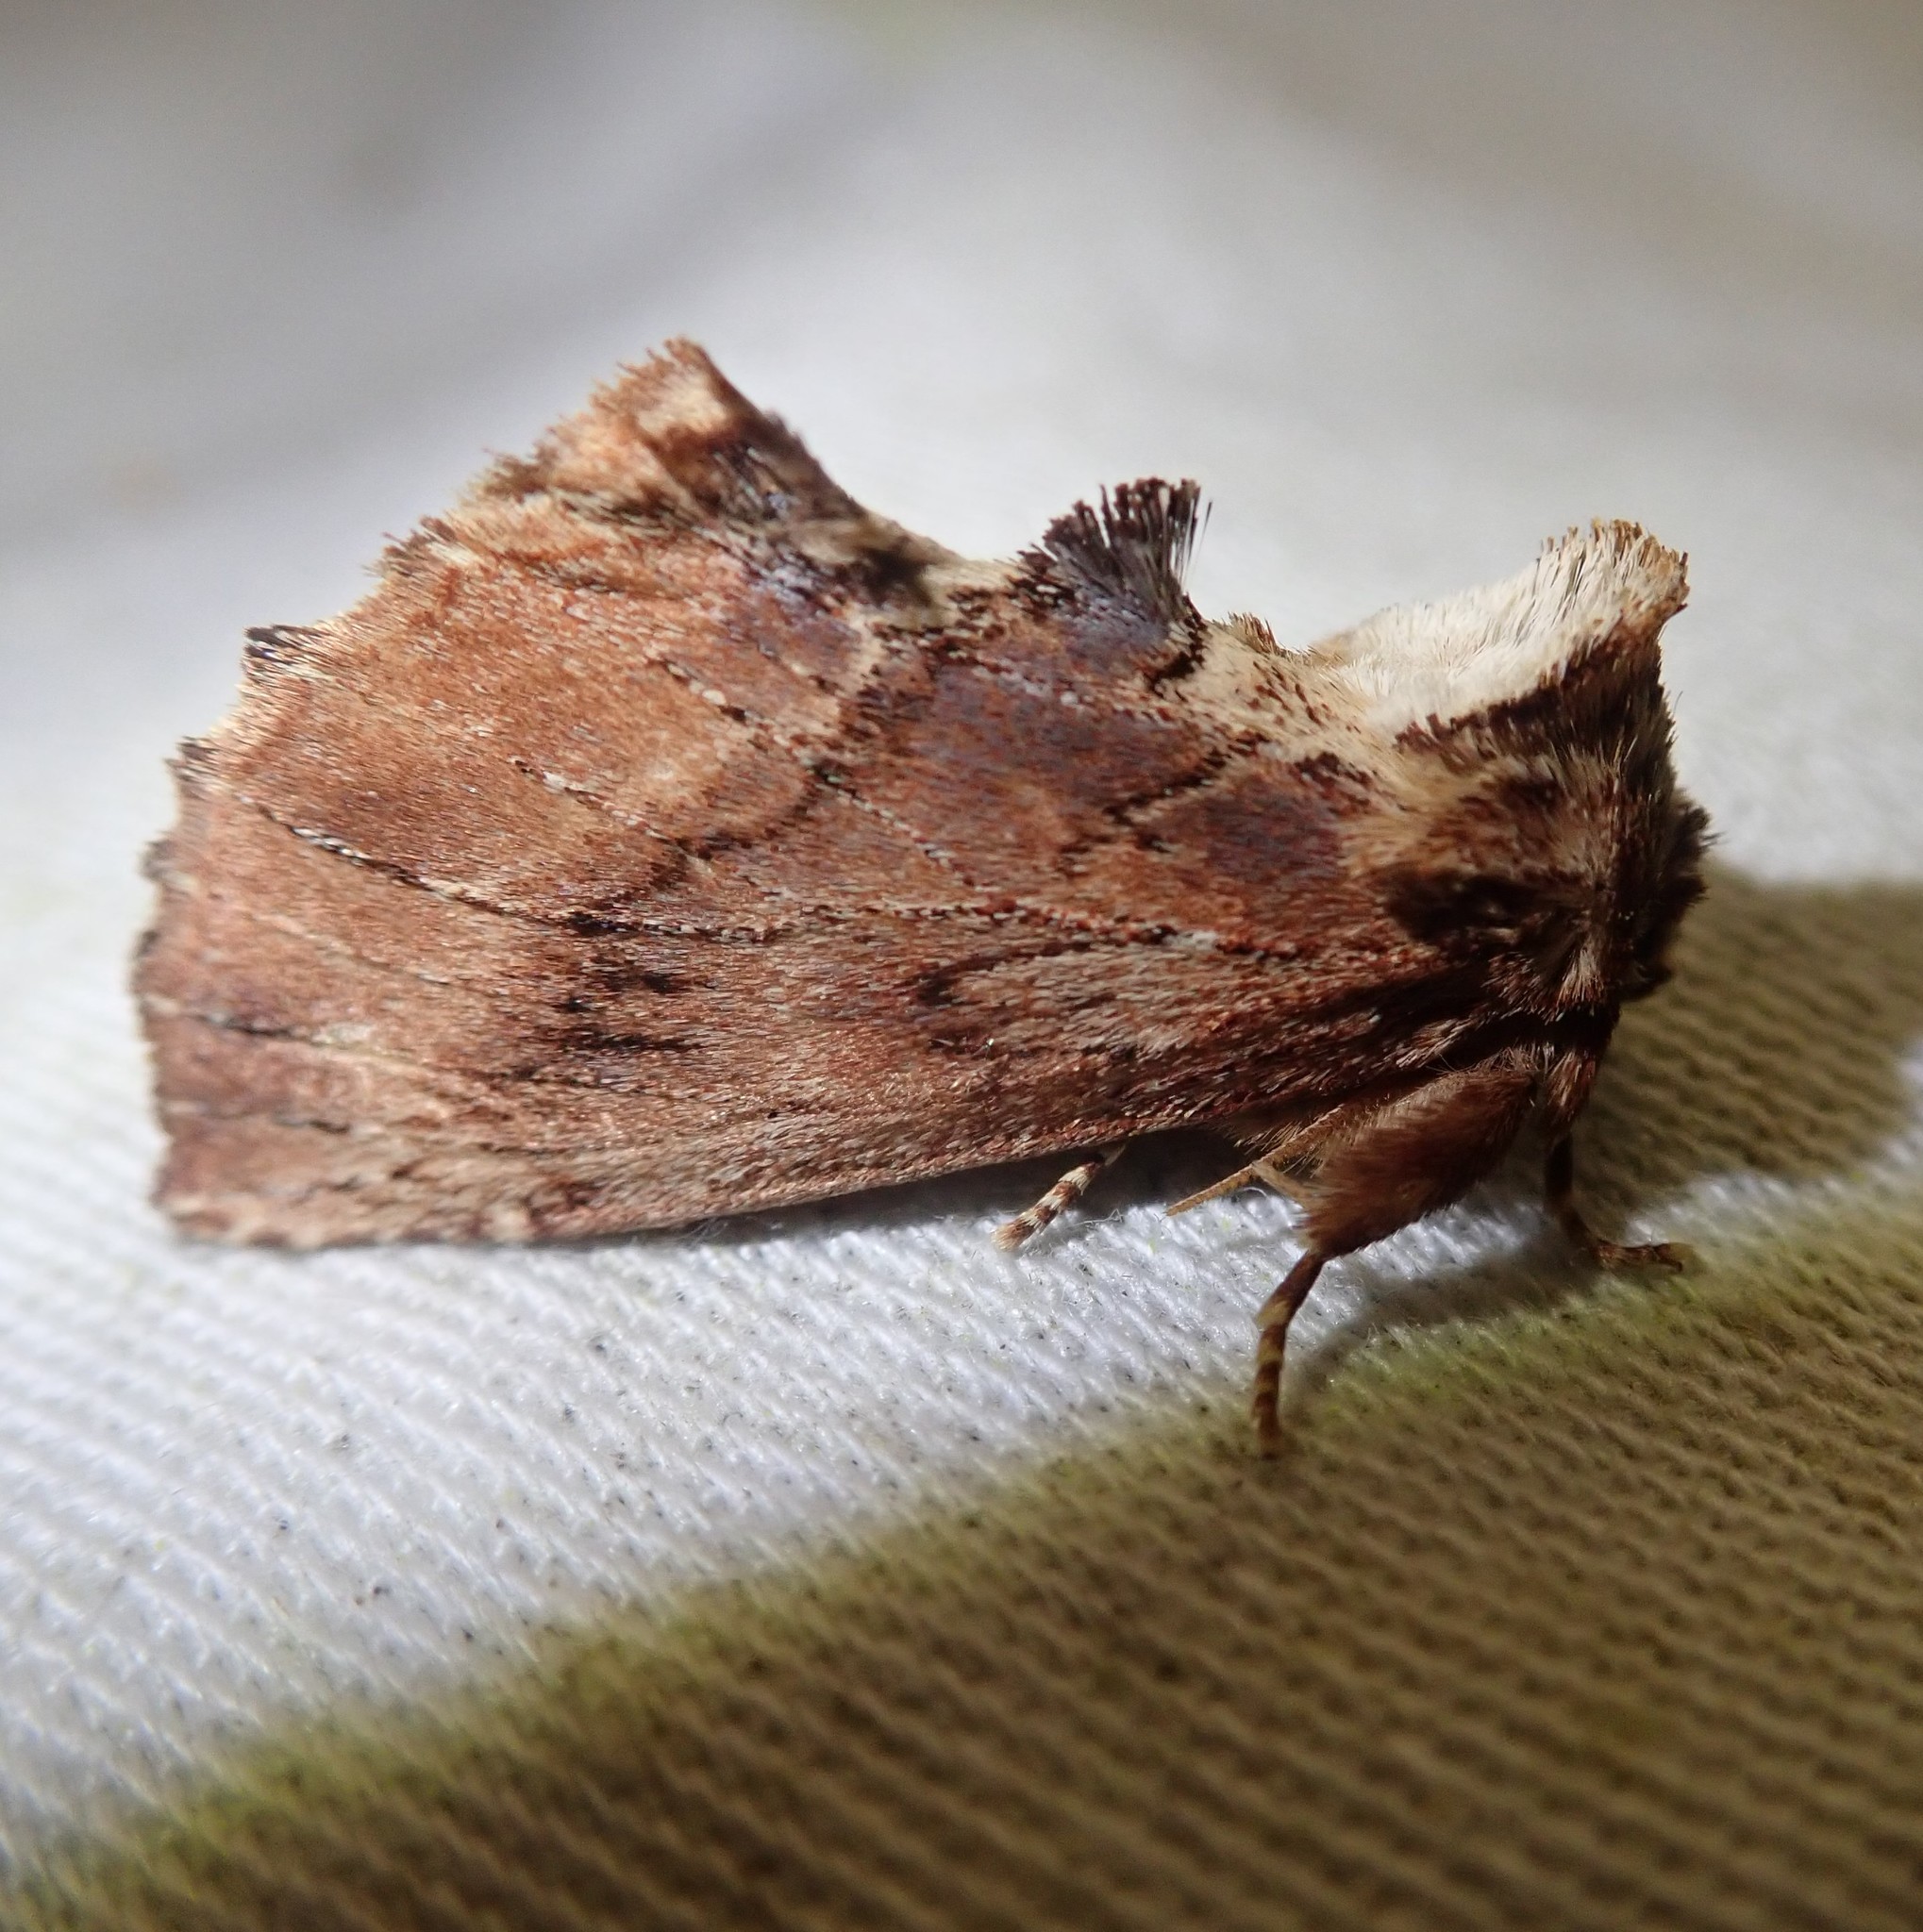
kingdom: Animalia
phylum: Arthropoda
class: Insecta
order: Lepidoptera
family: Notodontidae
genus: Ptilodon
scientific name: Ptilodon capucina
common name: Coxcomb prominent
